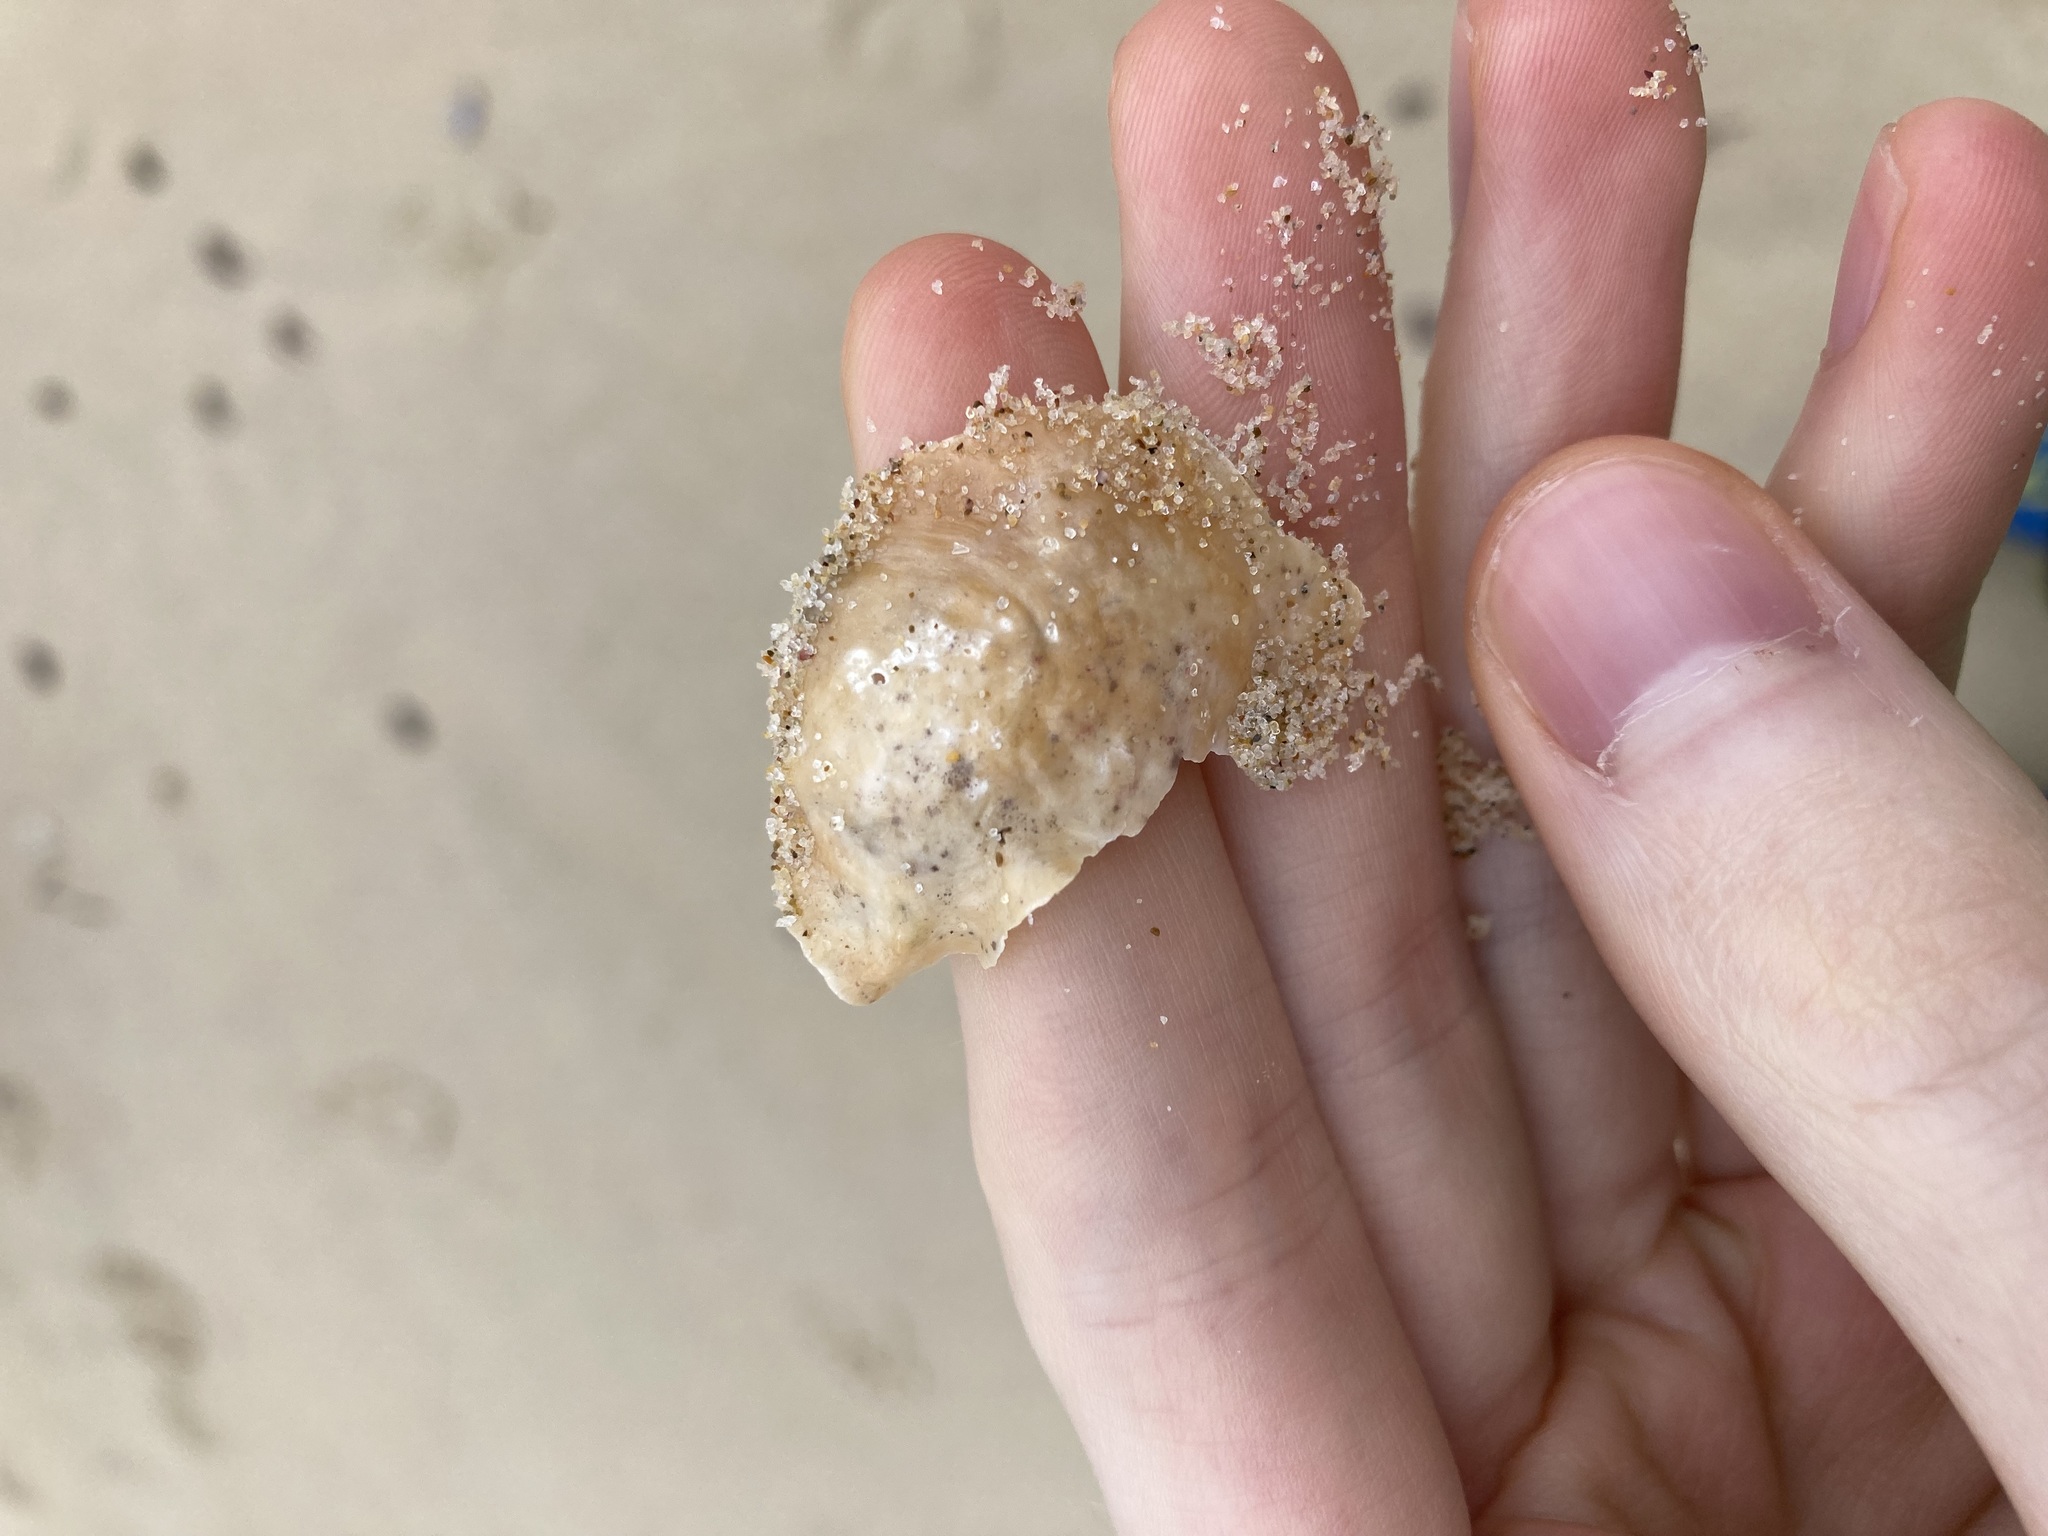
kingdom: Animalia
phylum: Mollusca
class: Bivalvia
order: Pectinida
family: Anomiidae
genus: Anomia
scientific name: Anomia trigonopsis
